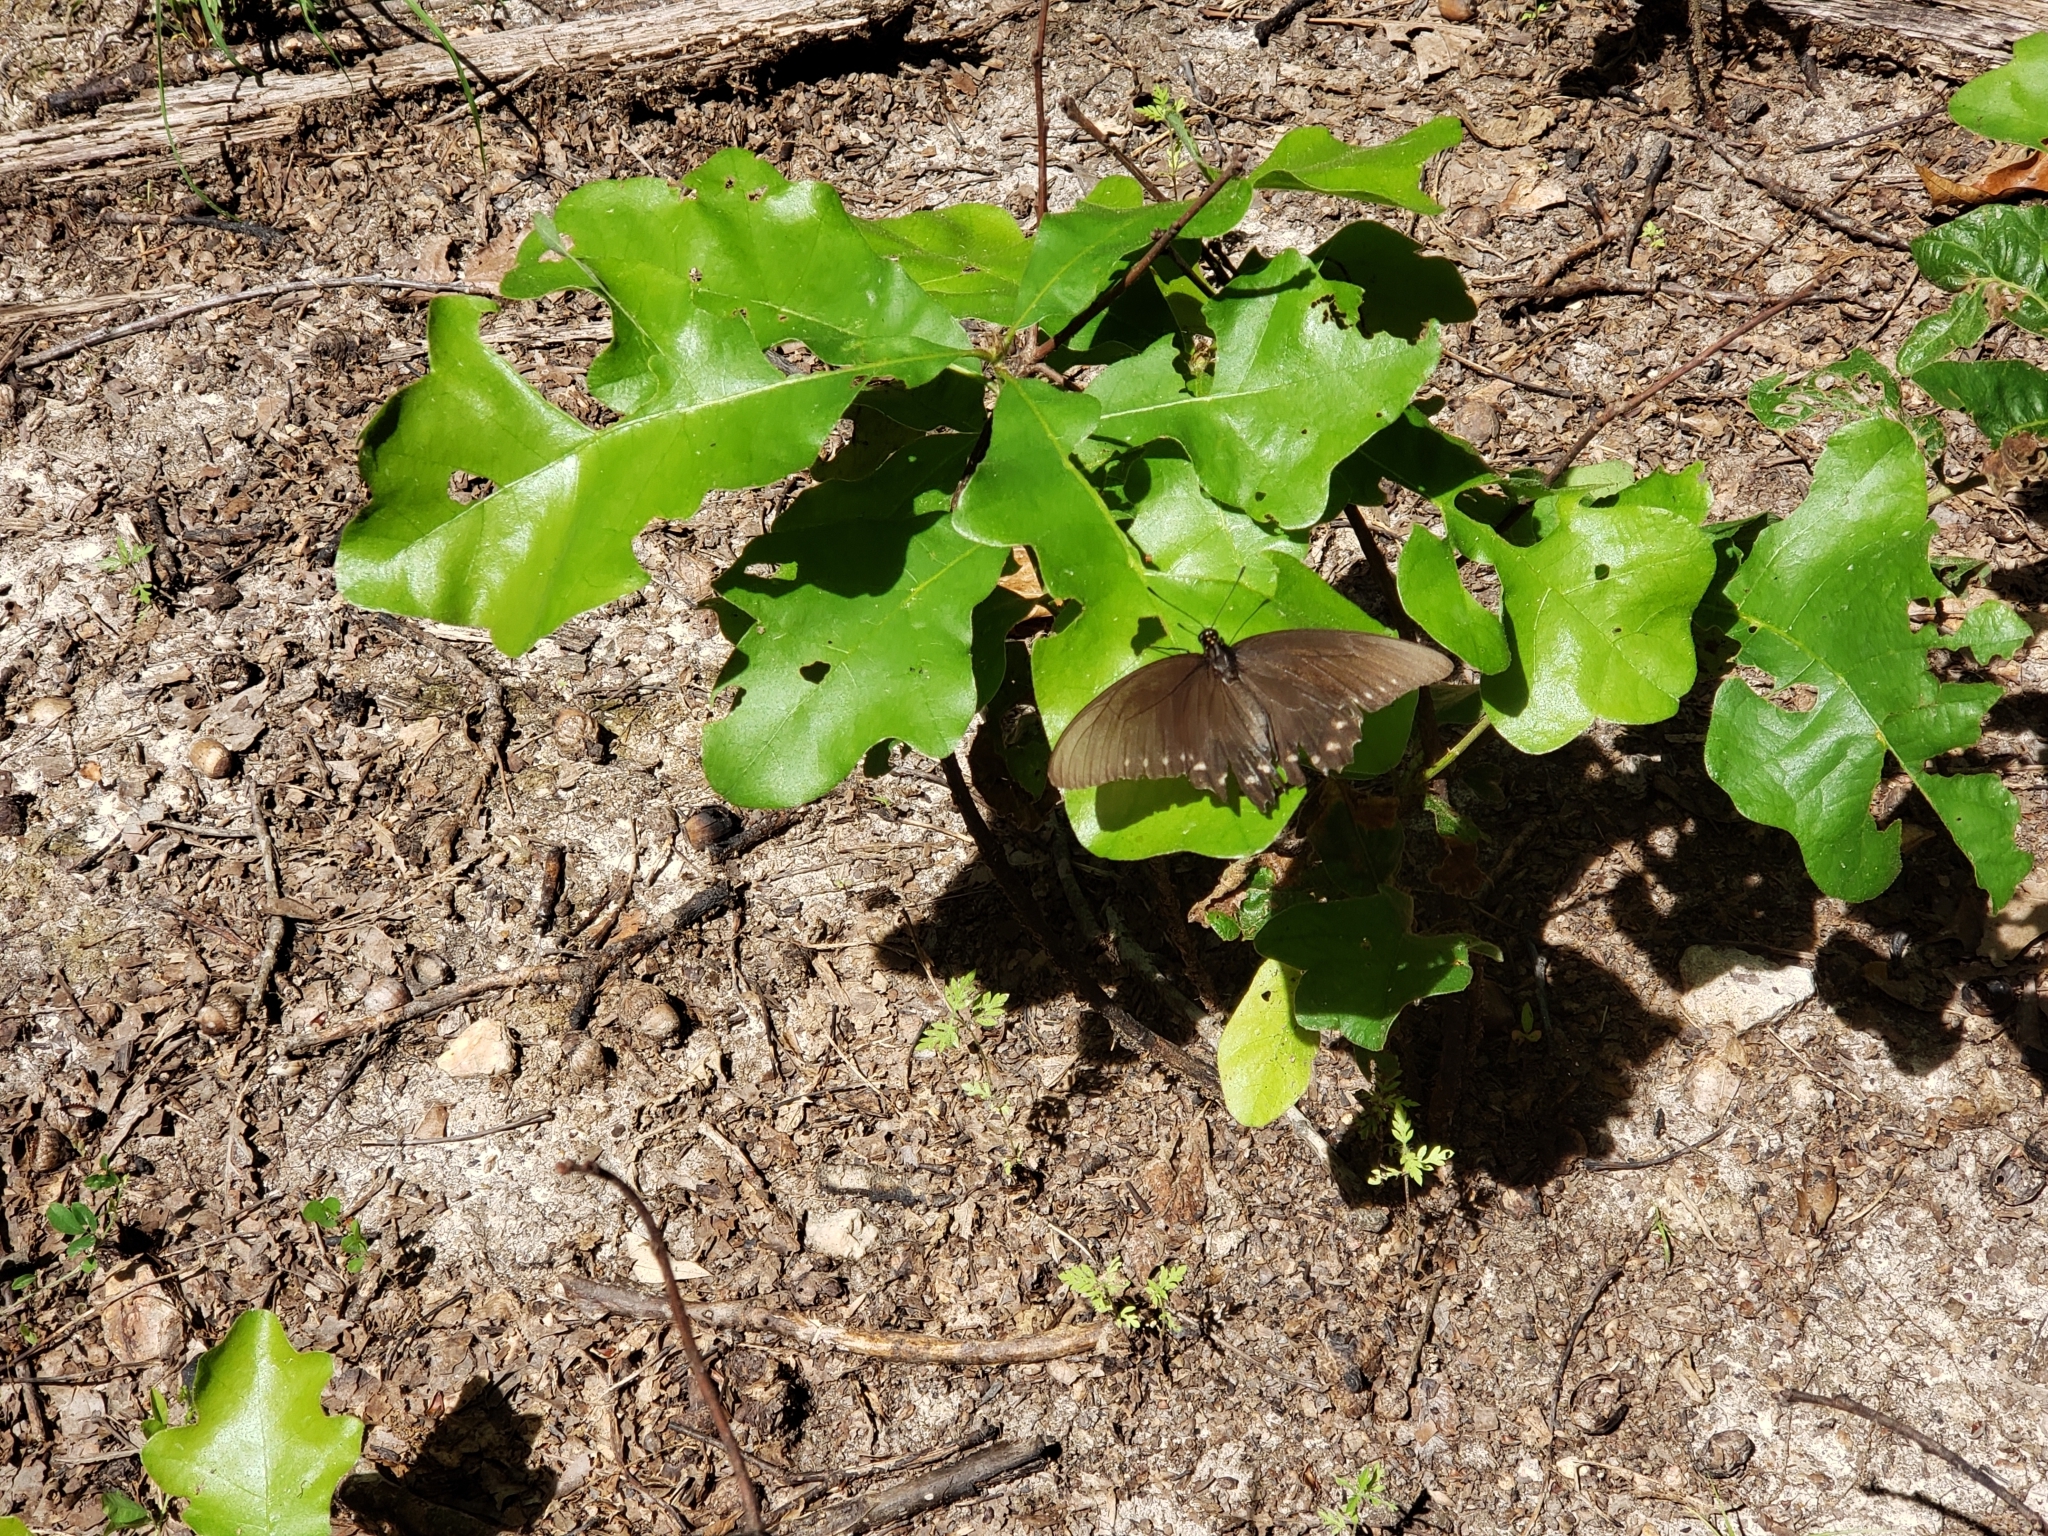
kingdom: Animalia
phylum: Arthropoda
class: Insecta
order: Lepidoptera
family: Papilionidae
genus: Battus
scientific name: Battus philenor
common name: Pipevine swallowtail
